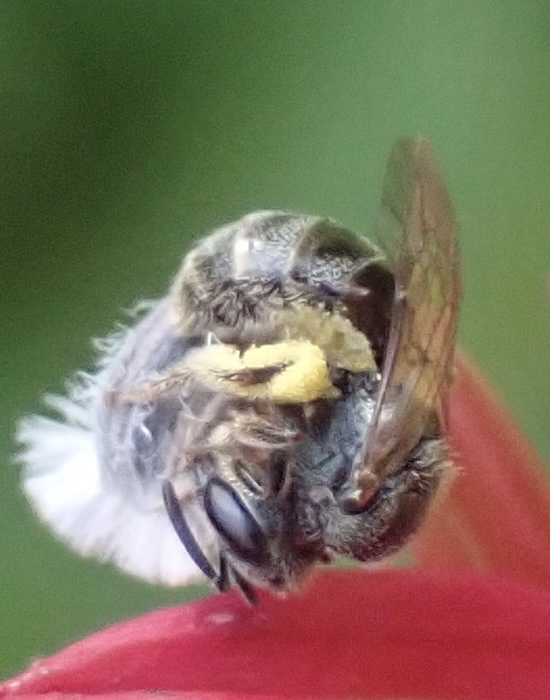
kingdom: Animalia
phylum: Arthropoda
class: Insecta
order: Hymenoptera
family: Halictidae
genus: Dialictus
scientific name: Dialictus
